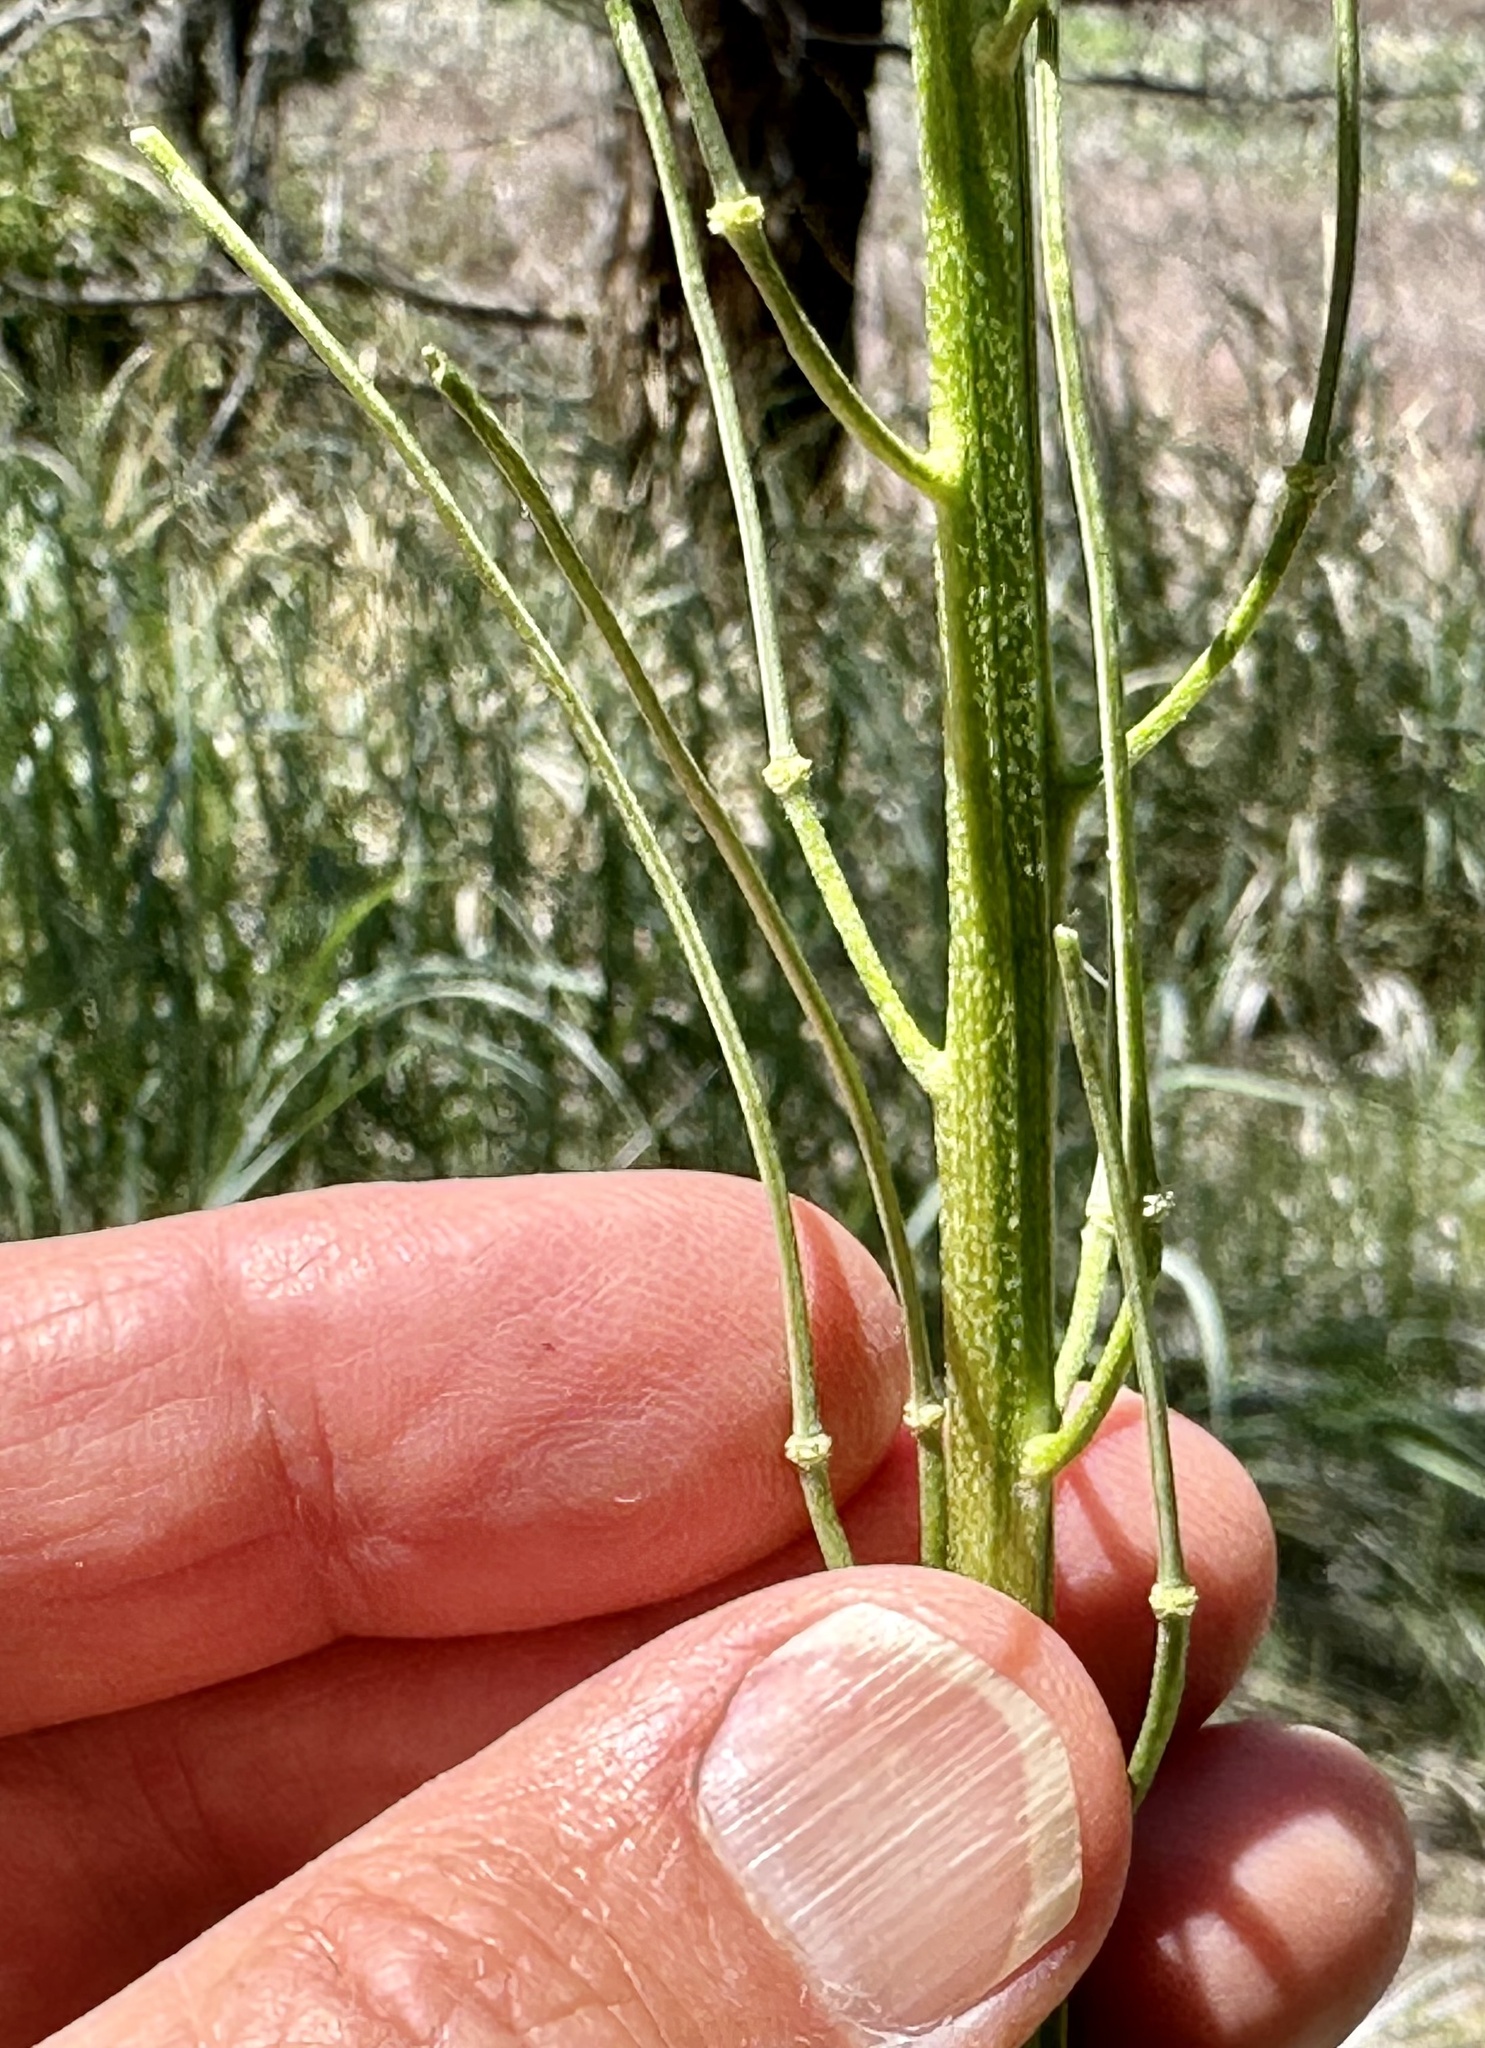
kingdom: Plantae
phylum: Tracheophyta
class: Magnoliopsida
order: Brassicales
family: Brassicaceae
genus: Erysimum
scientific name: Erysimum capitatum
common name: Western wallflower
